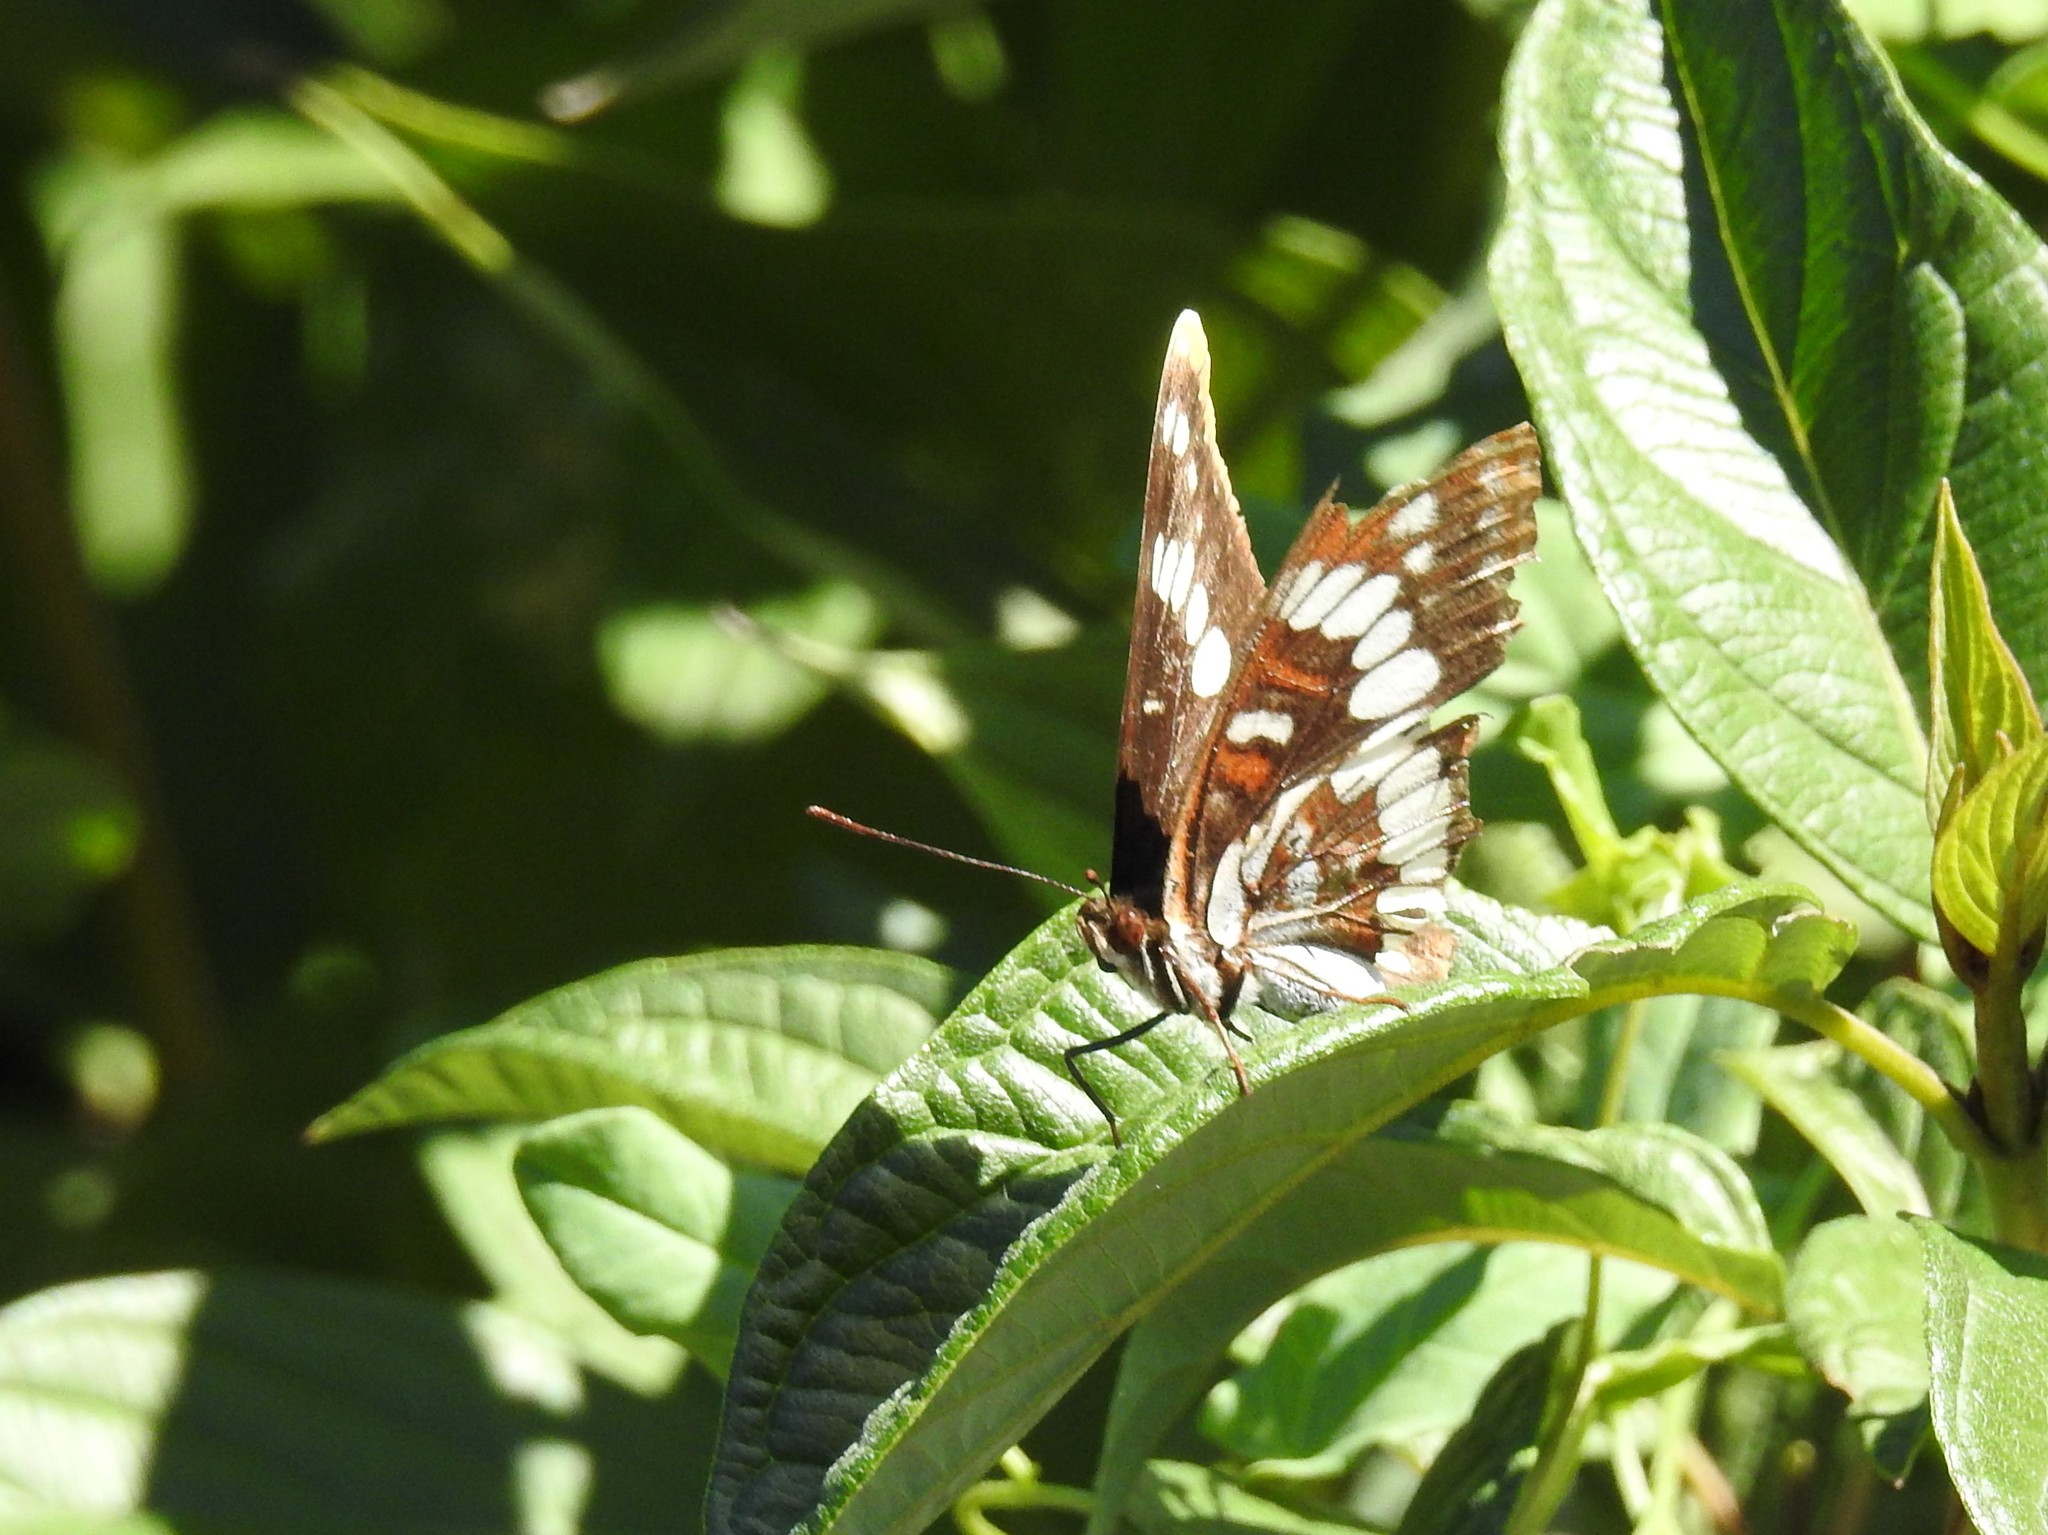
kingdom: Animalia
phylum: Arthropoda
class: Insecta
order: Lepidoptera
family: Nymphalidae
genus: Limenitis
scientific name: Limenitis lorquini
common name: Lorquin's admiral
